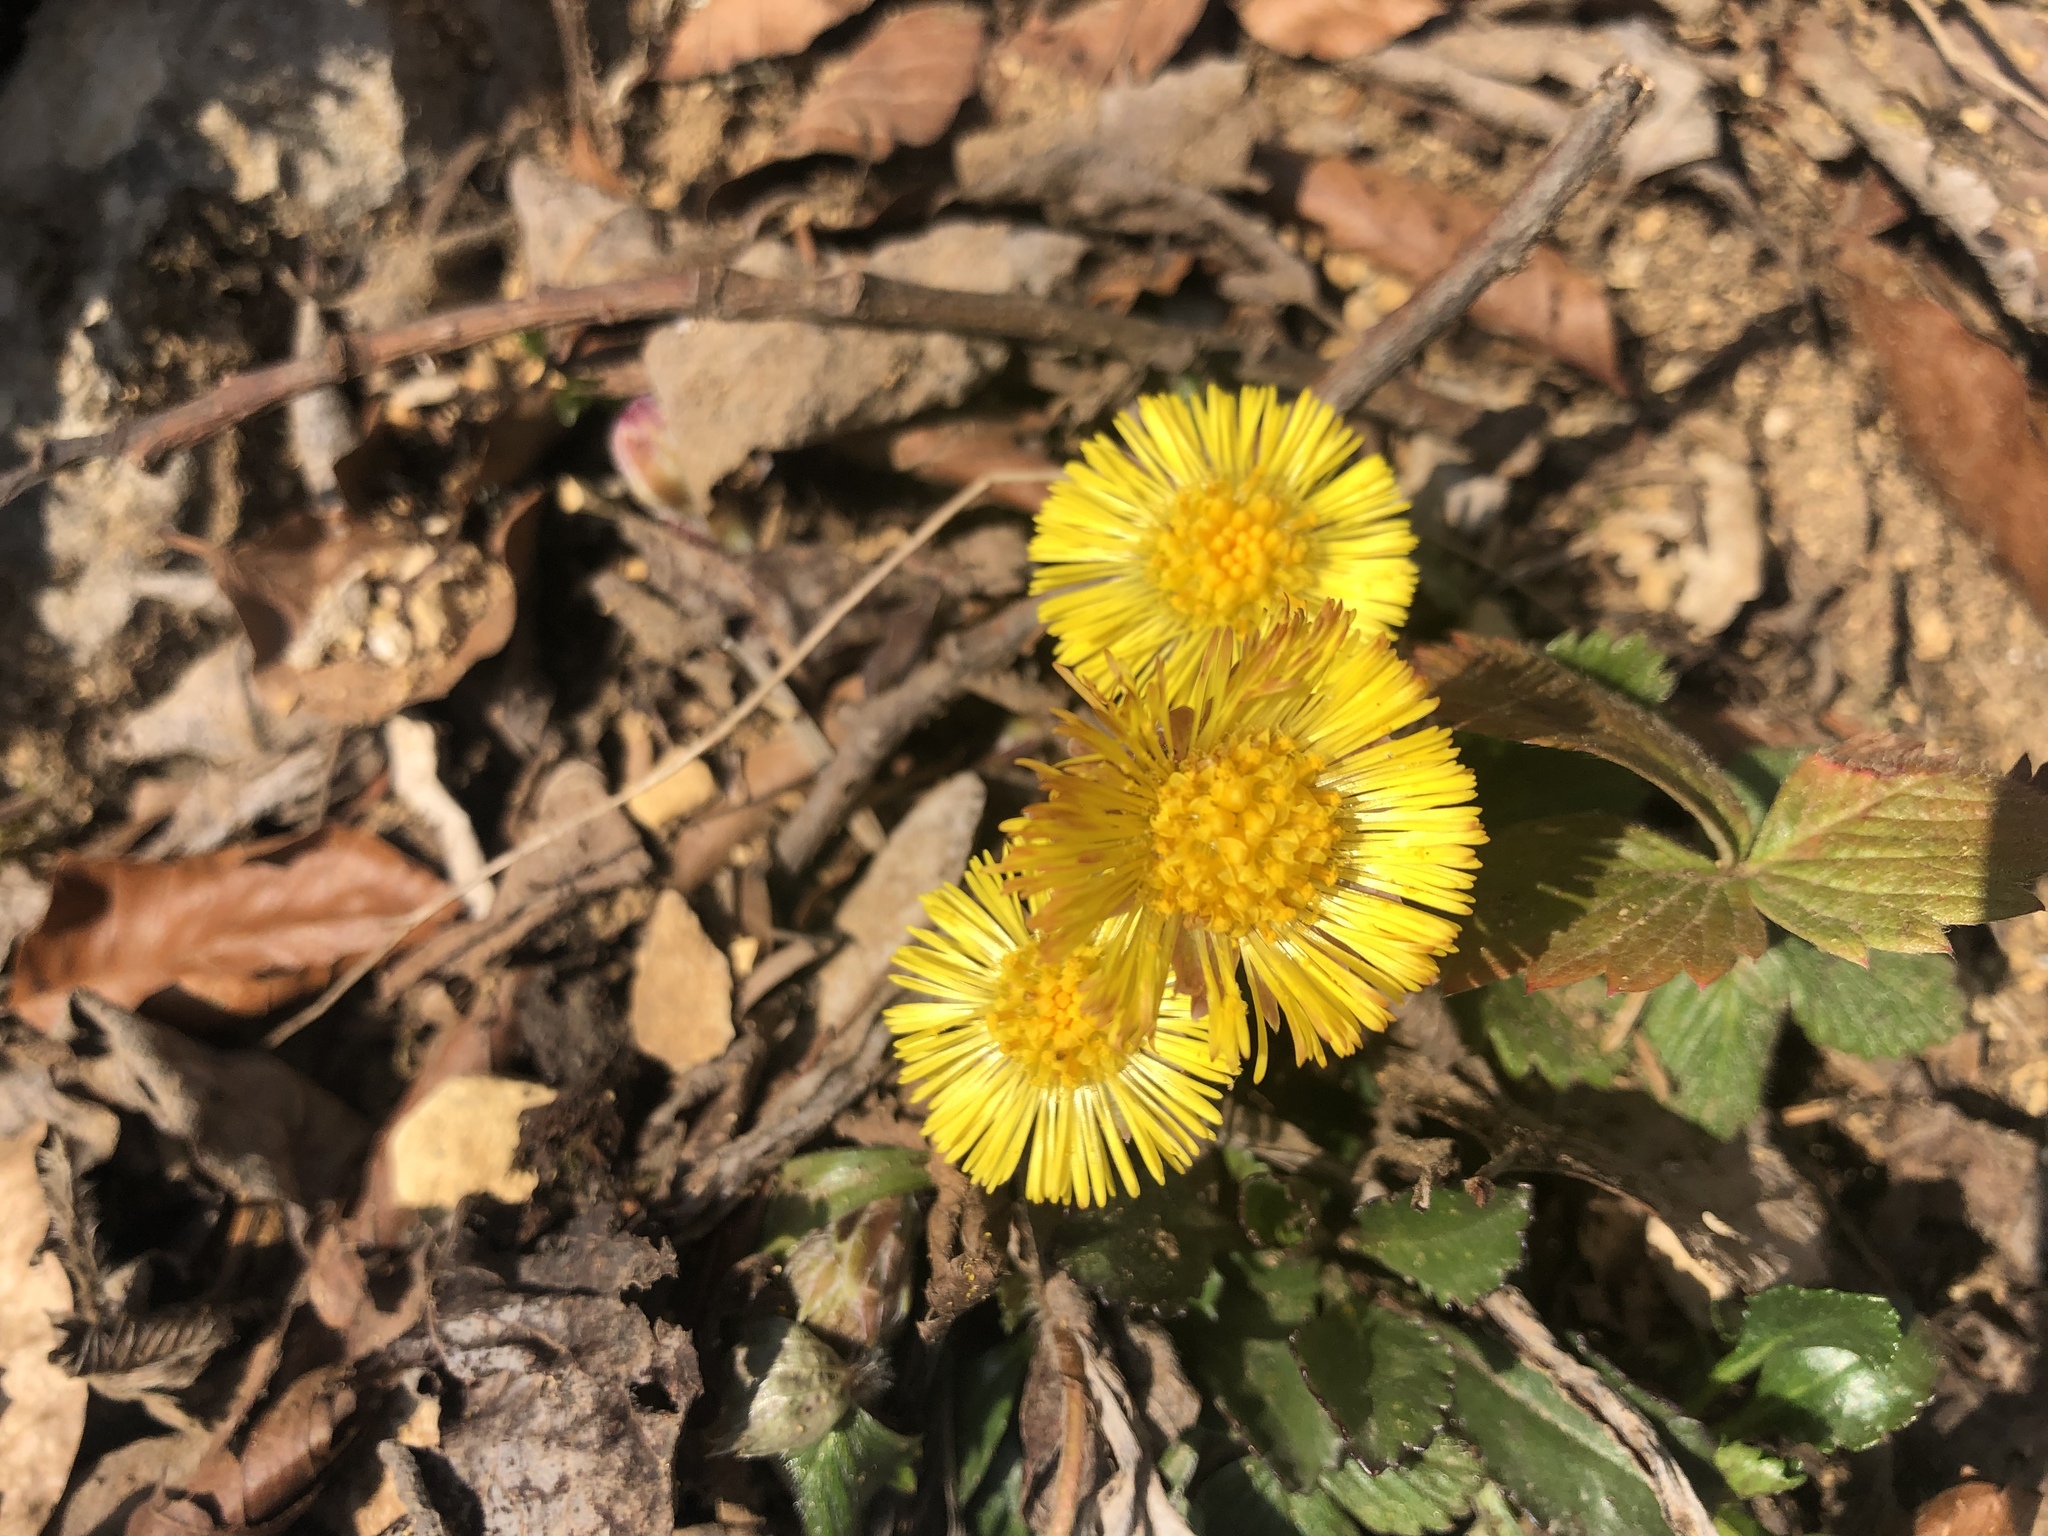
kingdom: Plantae
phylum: Tracheophyta
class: Magnoliopsida
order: Asterales
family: Asteraceae
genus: Tussilago
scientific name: Tussilago farfara
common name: Coltsfoot
